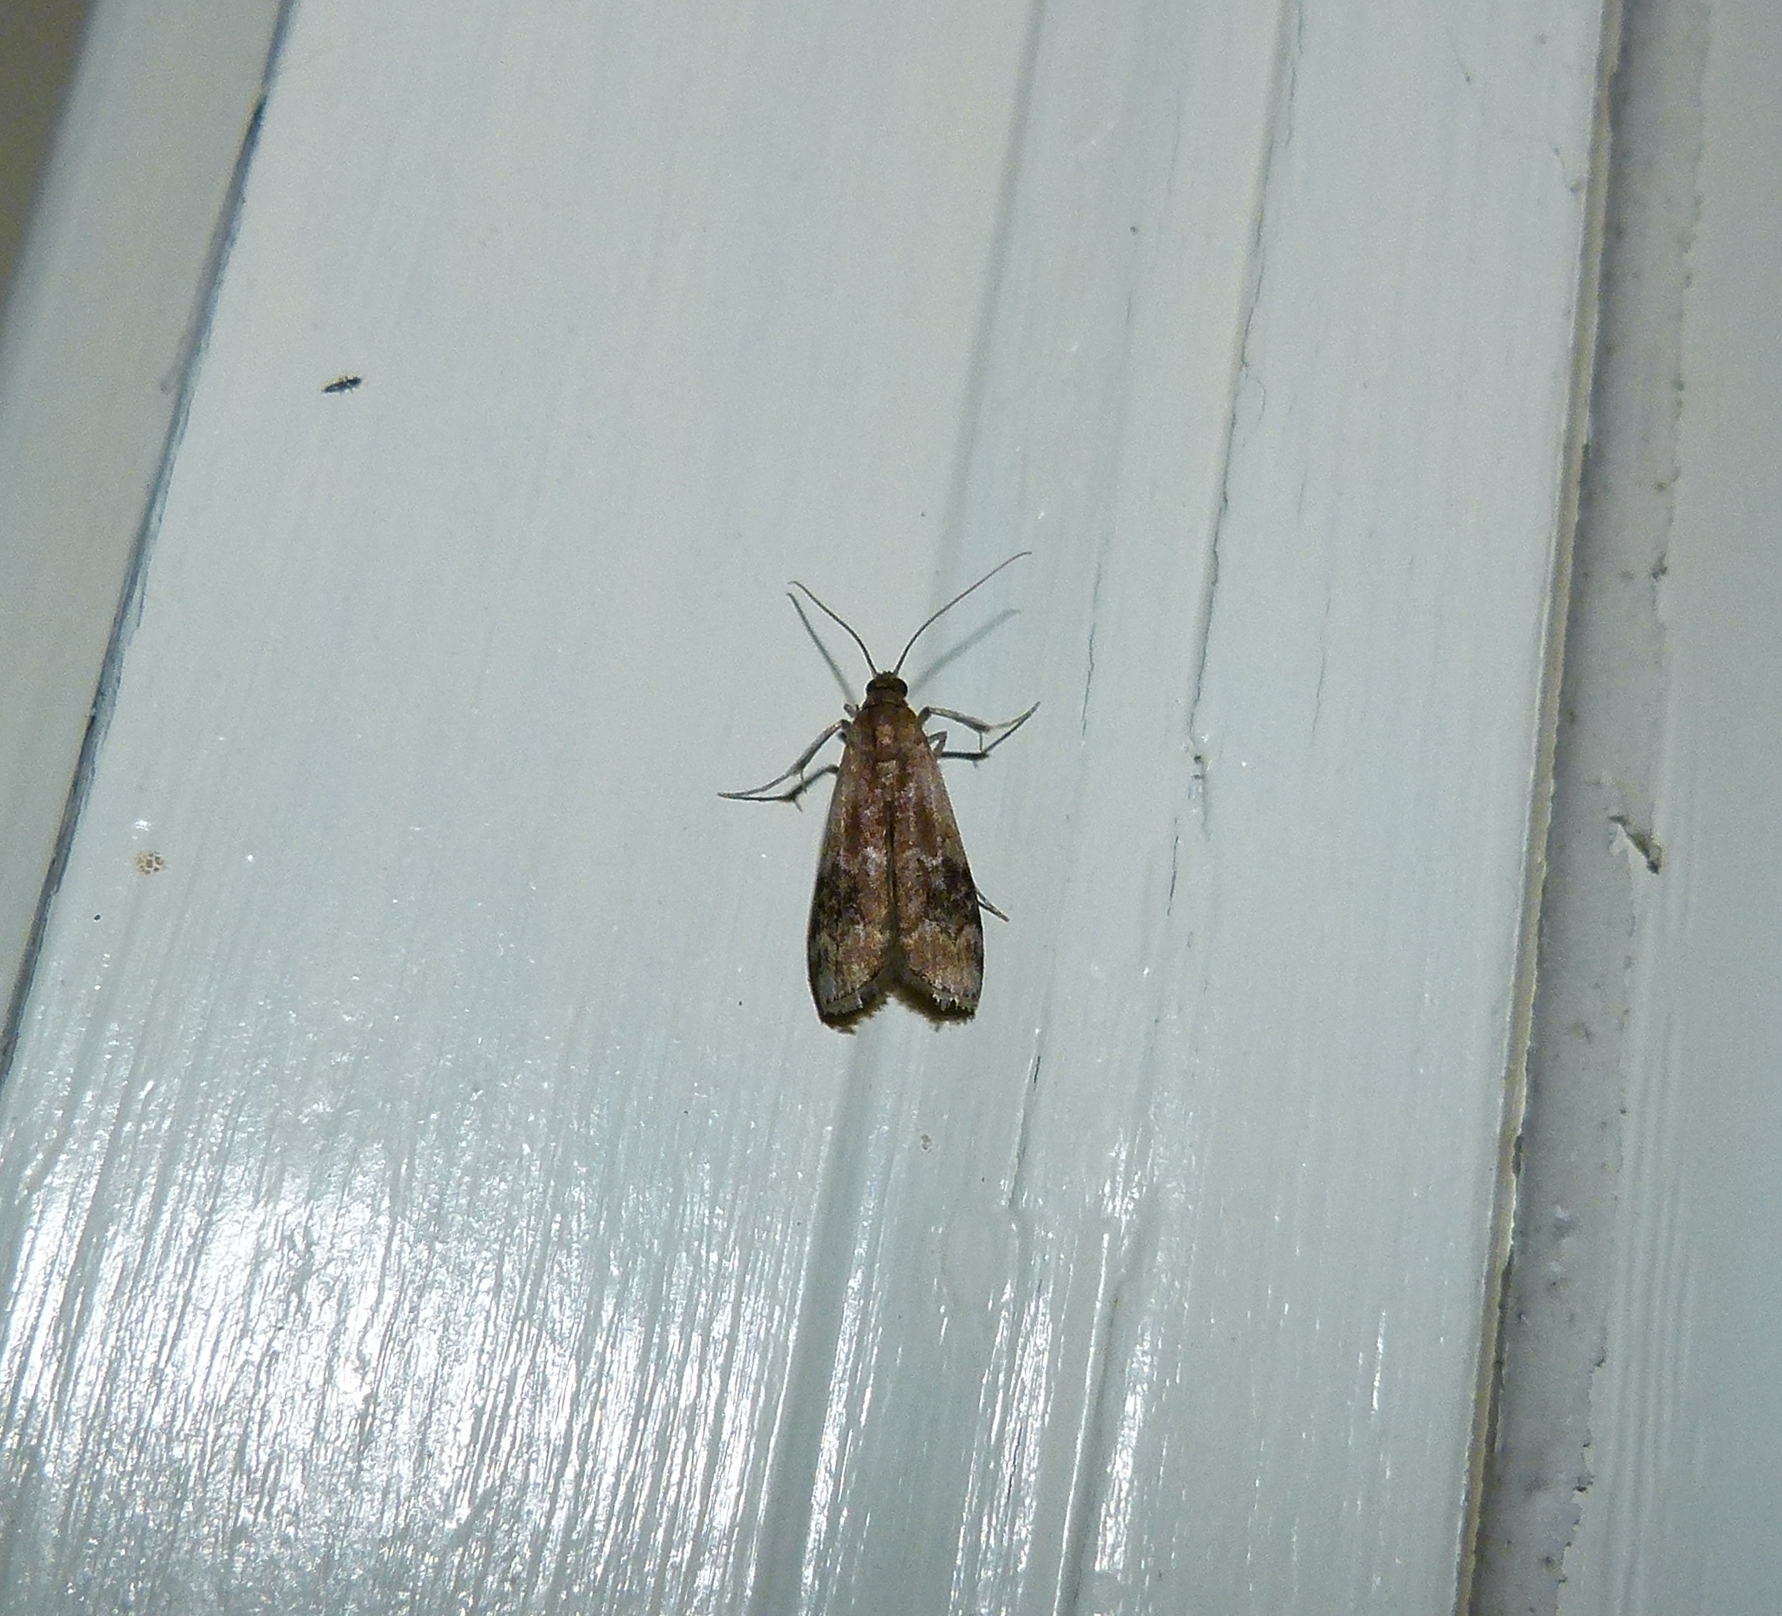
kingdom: Animalia
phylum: Arthropoda
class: Insecta
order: Lepidoptera
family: Pyralidae
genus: Euzophera
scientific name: Euzophera semifuneralis
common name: American plum borer moth
